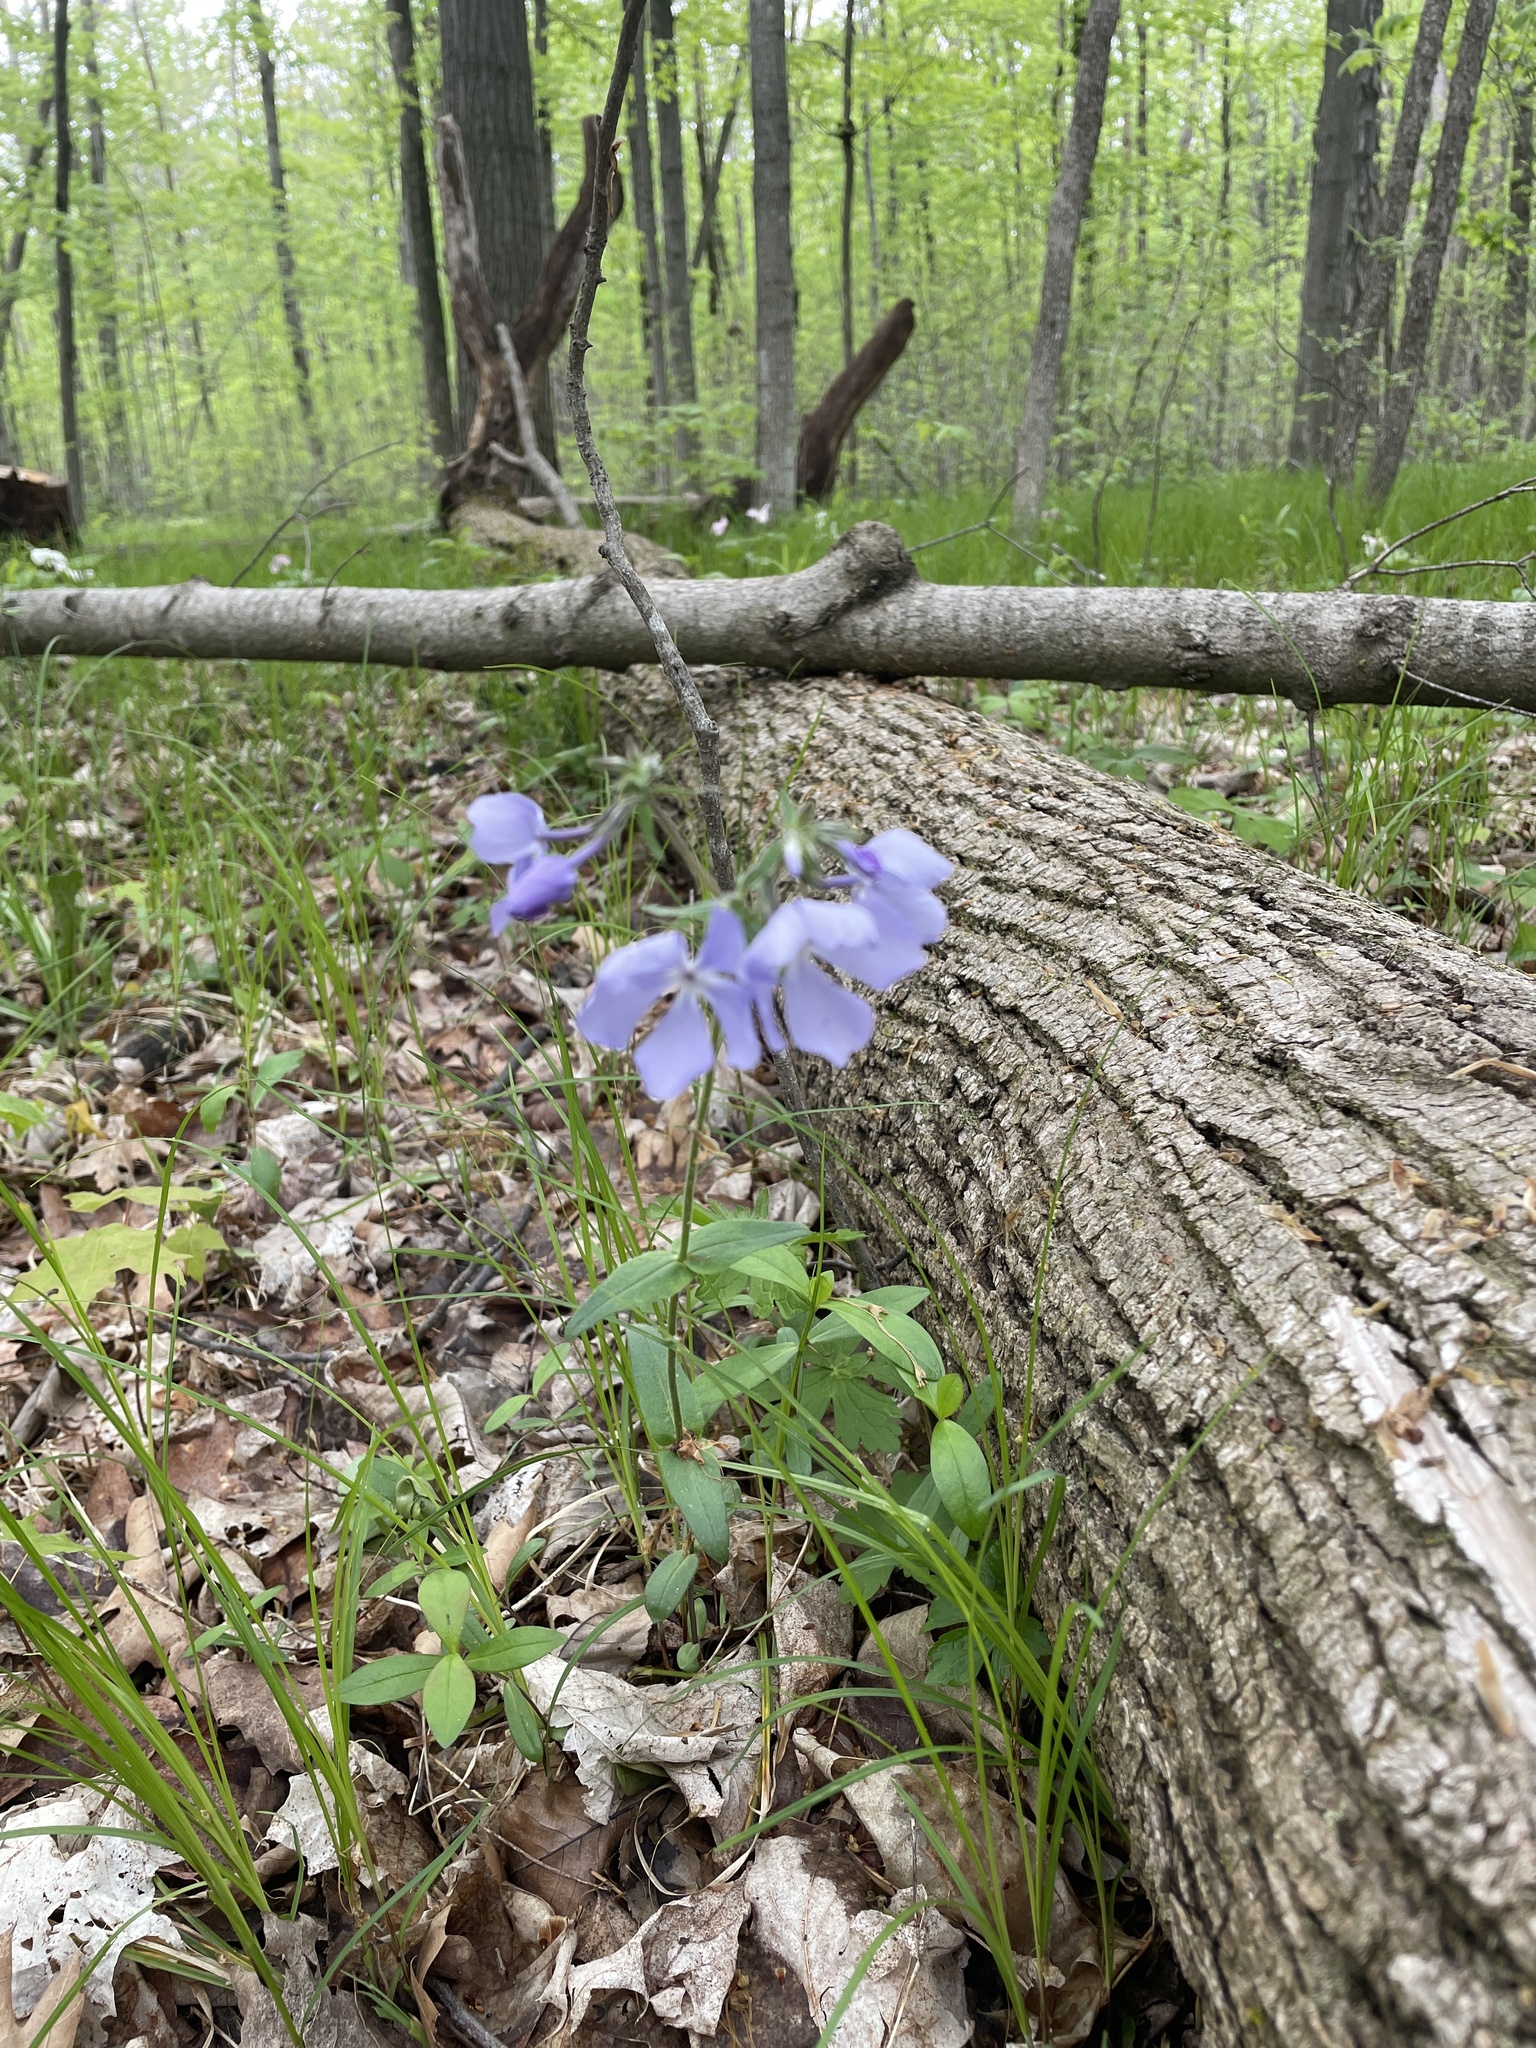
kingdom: Plantae
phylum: Tracheophyta
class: Magnoliopsida
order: Ericales
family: Polemoniaceae
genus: Phlox
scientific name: Phlox divaricata
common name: Blue phlox
